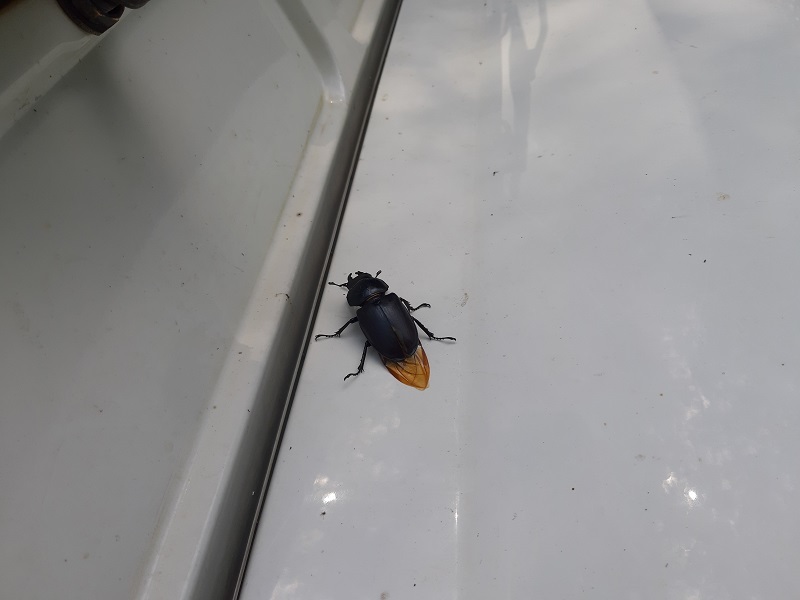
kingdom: Animalia
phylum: Arthropoda
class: Insecta
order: Coleoptera
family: Lucanidae
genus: Lucanus
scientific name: Lucanus cervus
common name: Stag beetle
